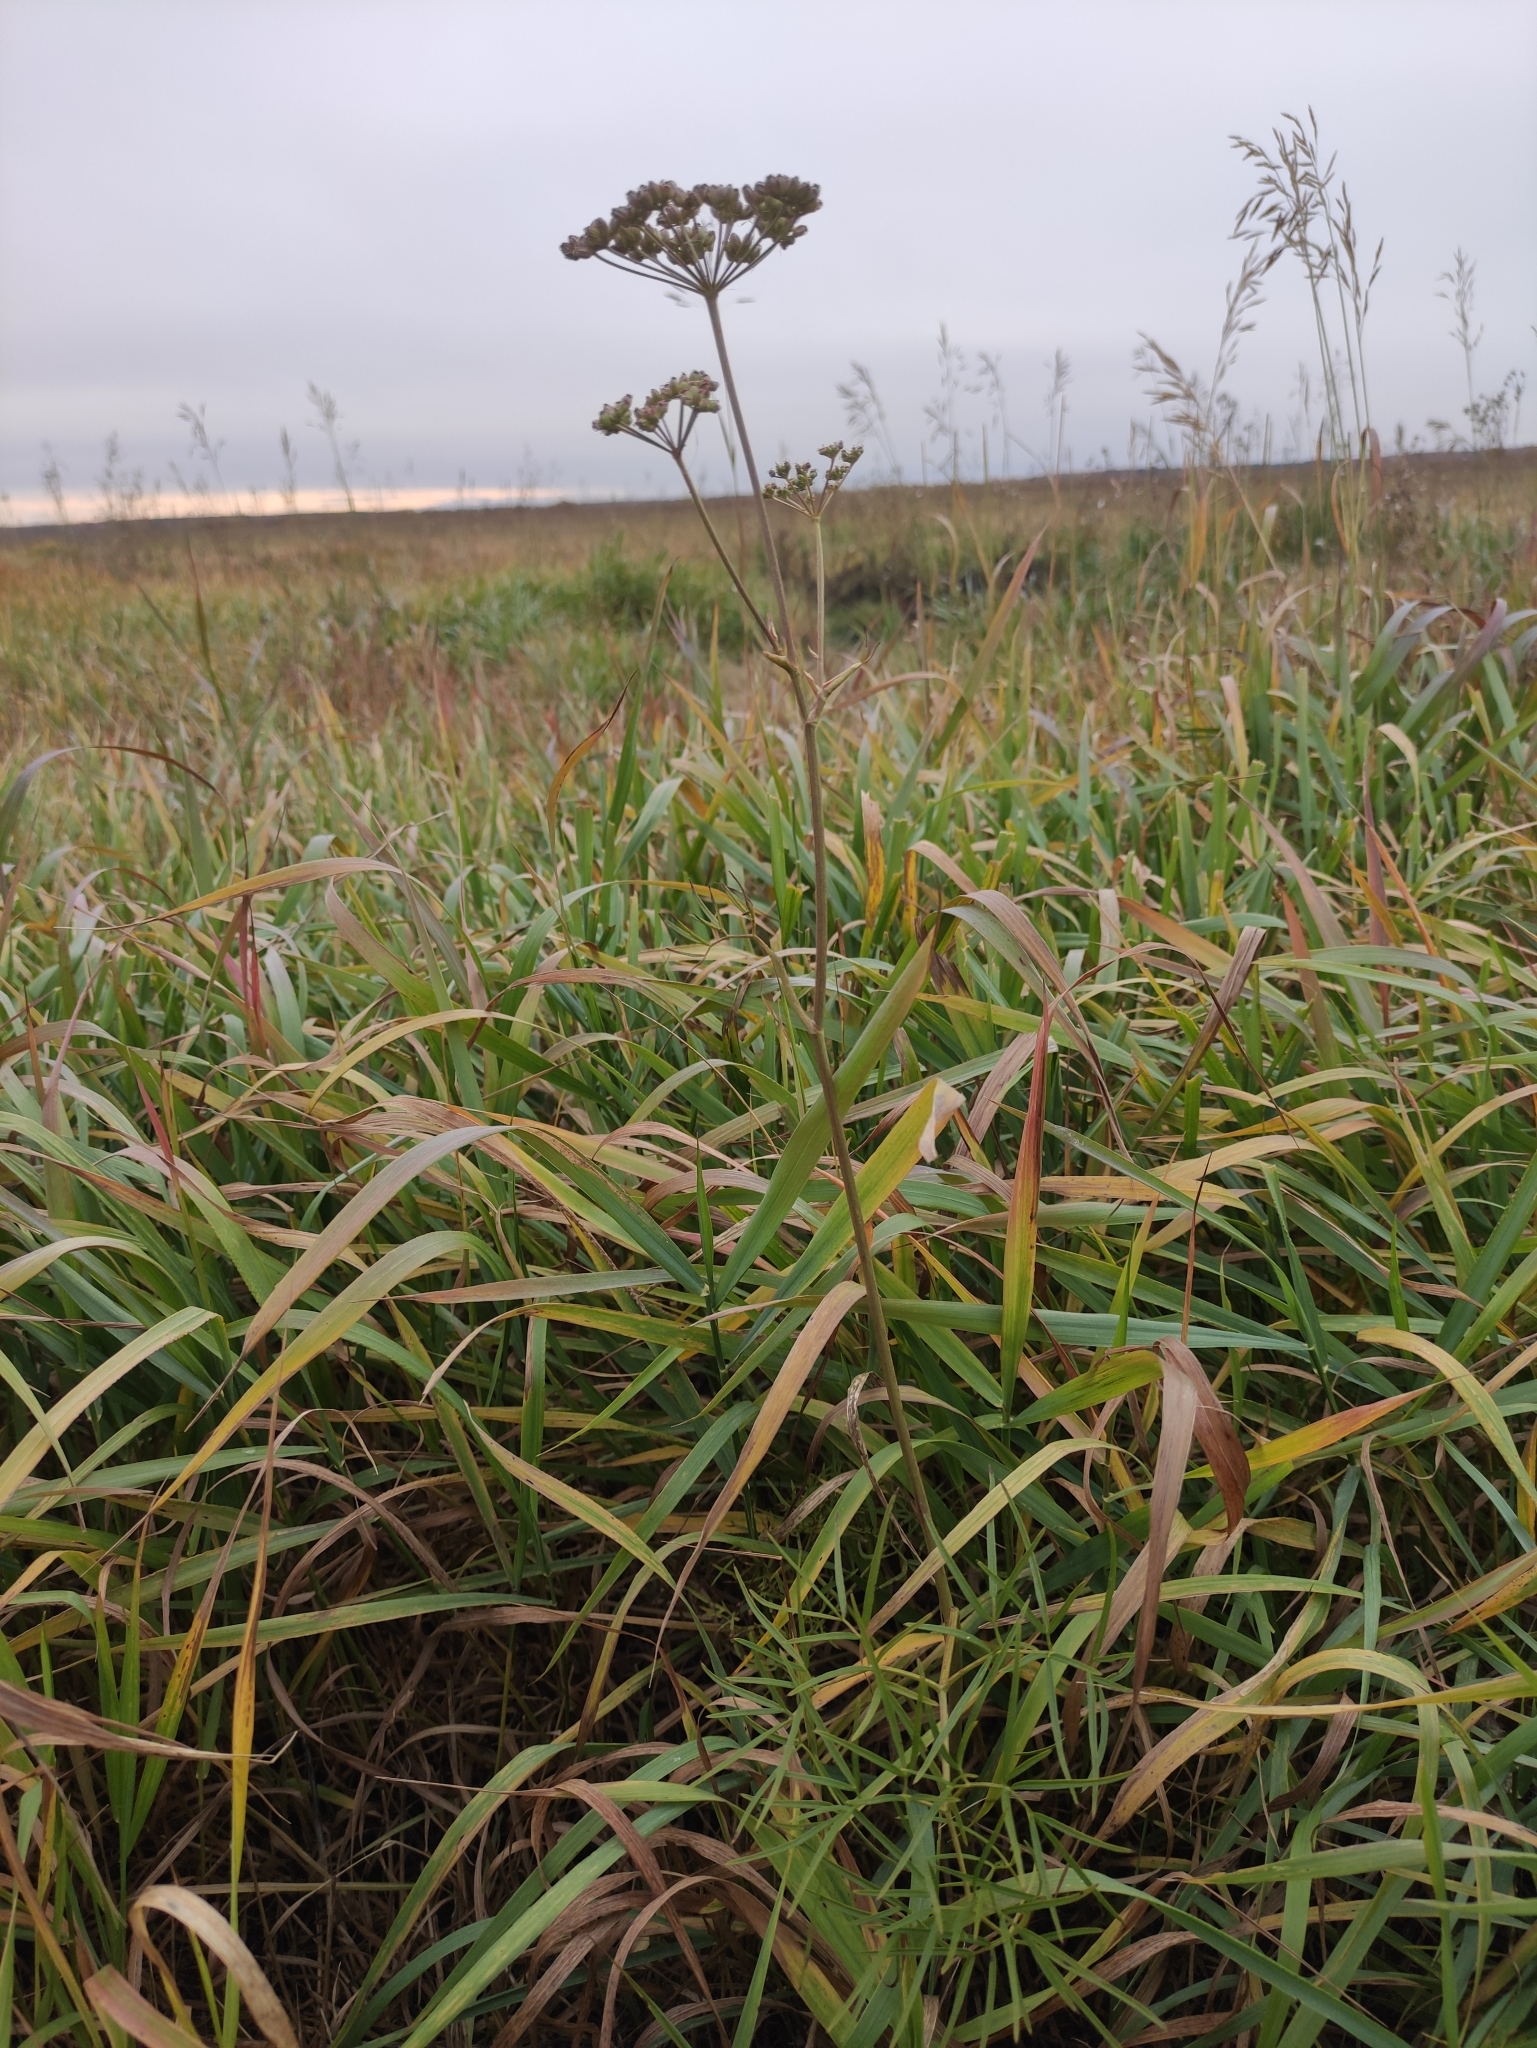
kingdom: Plantae
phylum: Tracheophyta
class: Magnoliopsida
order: Apiales
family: Apiaceae
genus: Cenolophium
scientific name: Cenolophium fischeri
